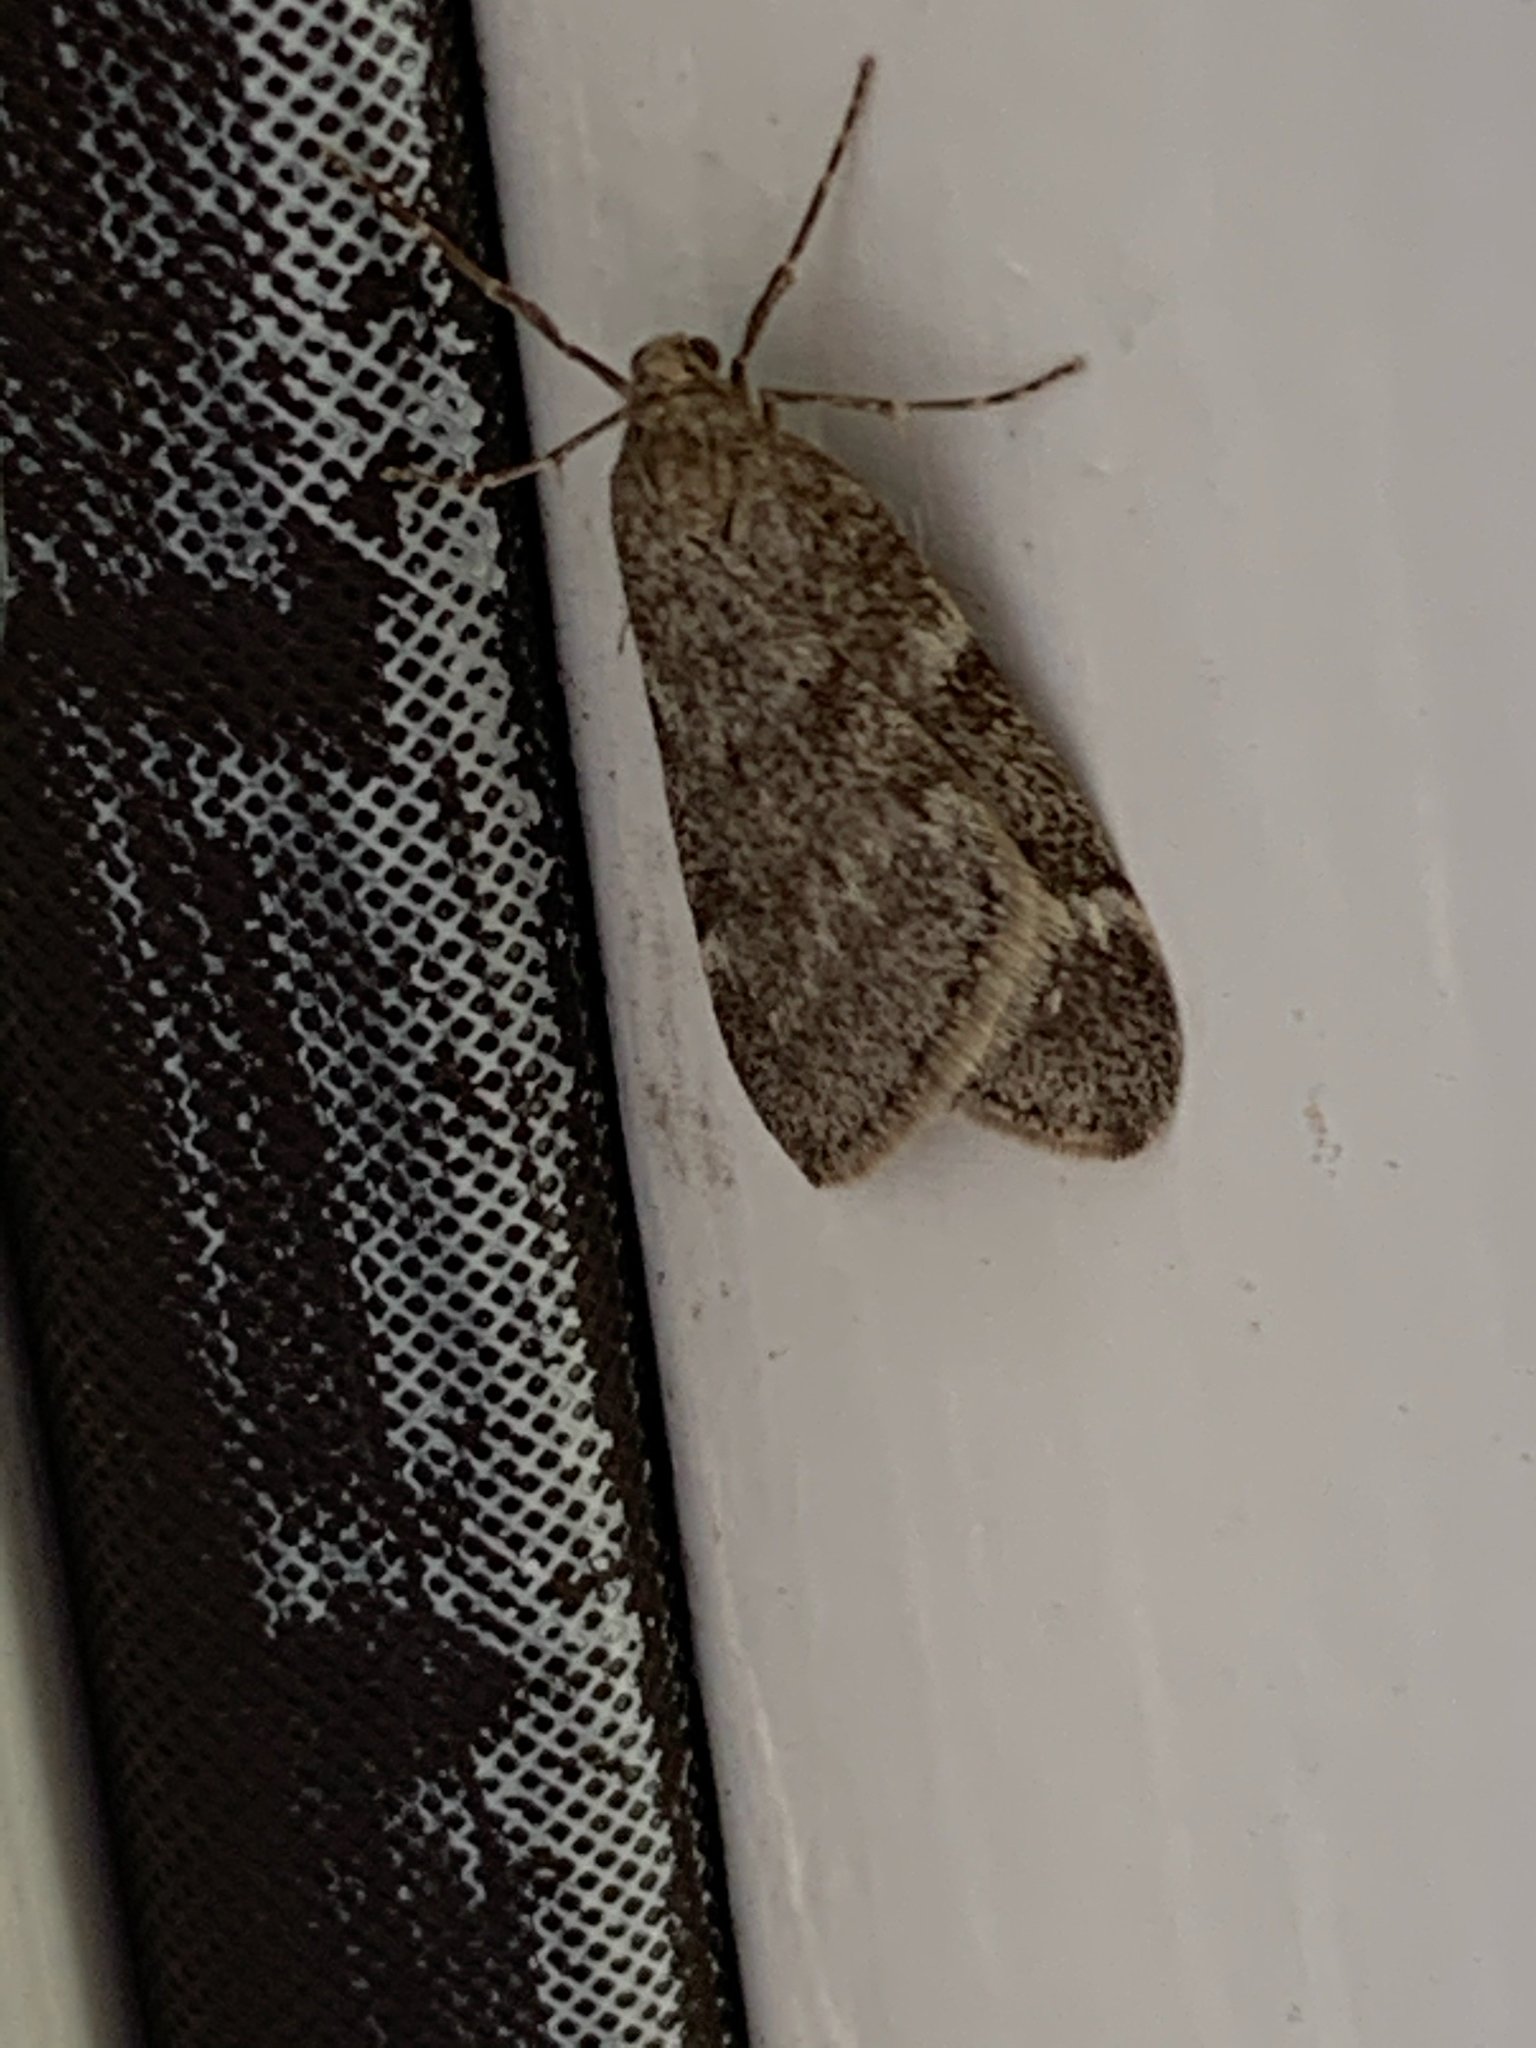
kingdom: Animalia
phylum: Arthropoda
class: Insecta
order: Lepidoptera
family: Geometridae
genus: Alsophila
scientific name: Alsophila pometaria
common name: Fall cankerworm
